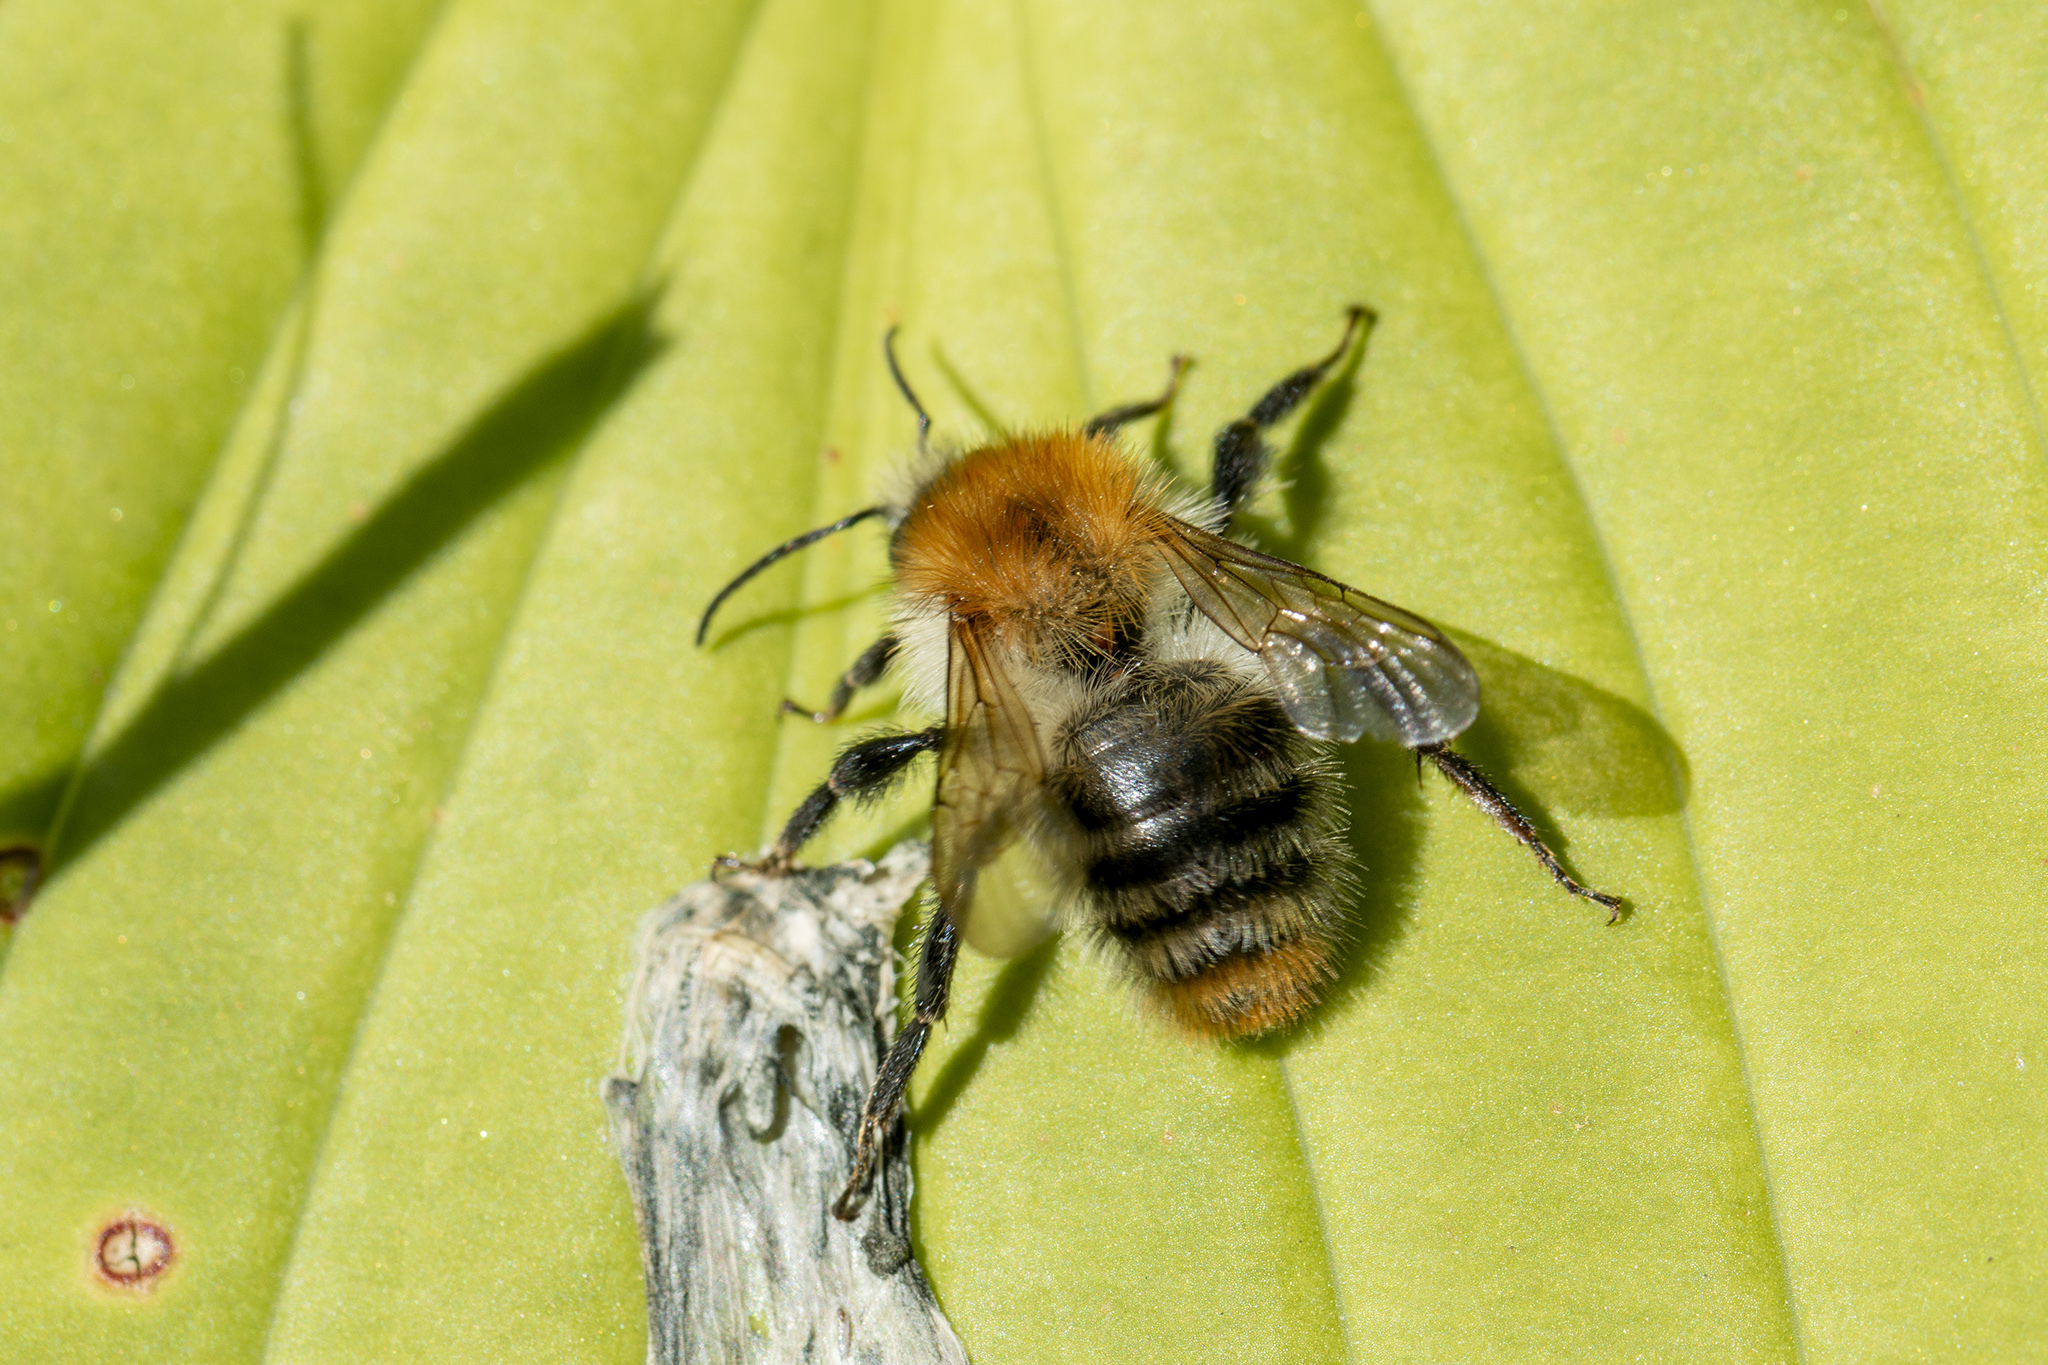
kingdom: Animalia
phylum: Arthropoda
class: Insecta
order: Hymenoptera
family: Apidae
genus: Bombus
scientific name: Bombus pascuorum
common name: Common carder bee
